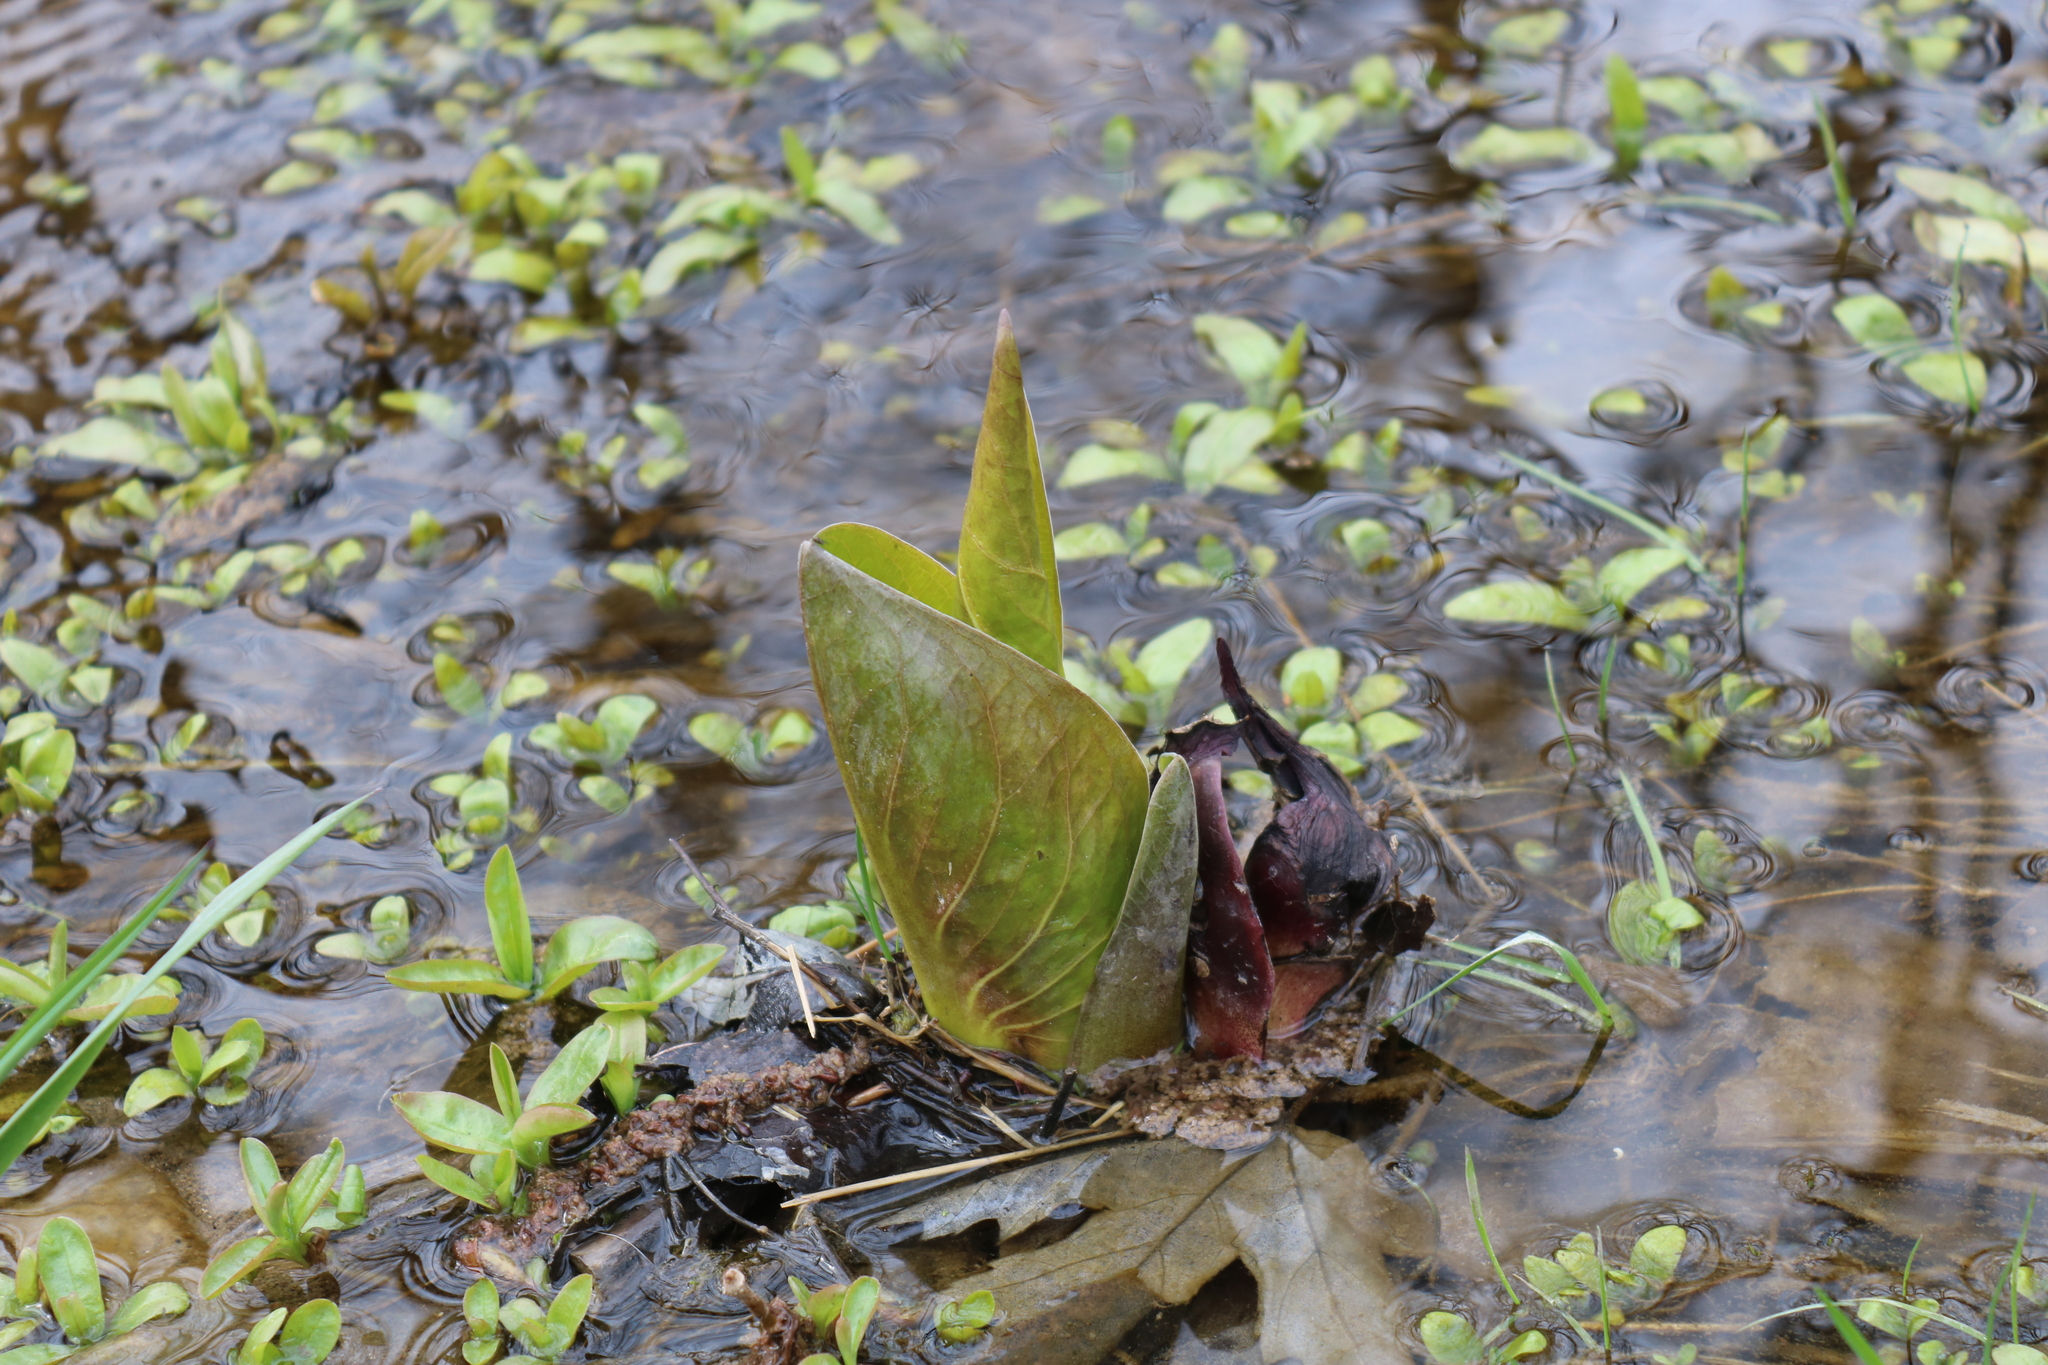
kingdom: Plantae
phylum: Tracheophyta
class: Liliopsida
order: Alismatales
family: Araceae
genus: Symplocarpus
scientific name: Symplocarpus foetidus
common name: Eastern skunk cabbage
